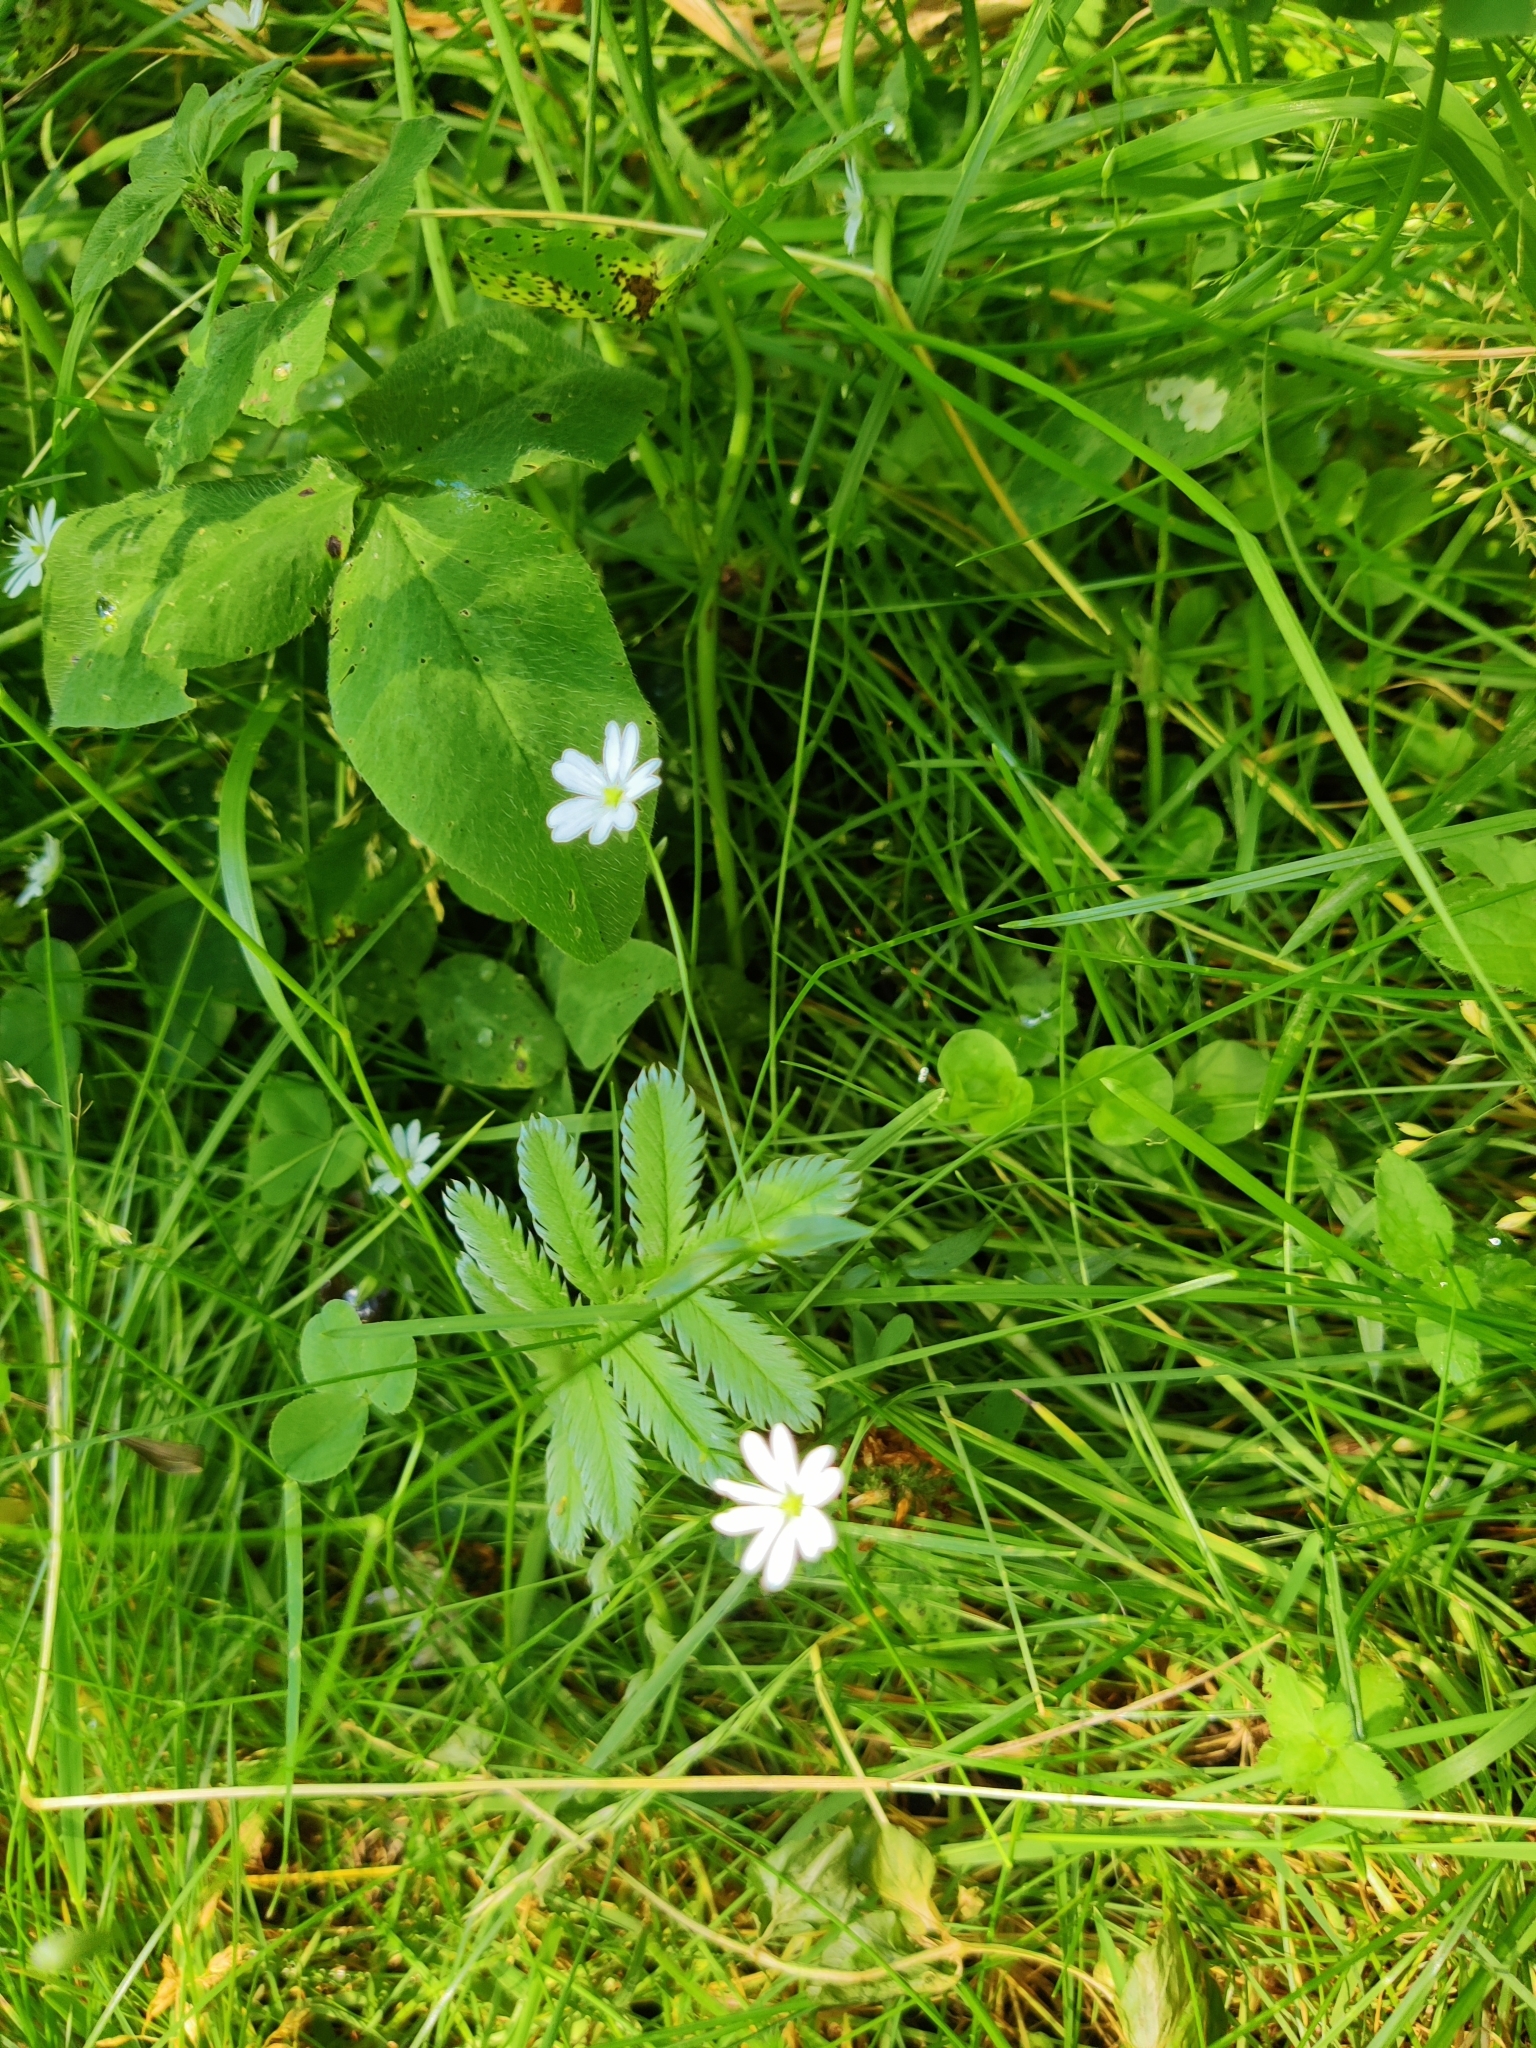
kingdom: Plantae
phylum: Tracheophyta
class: Magnoliopsida
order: Caryophyllales
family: Caryophyllaceae
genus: Stellaria
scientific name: Stellaria graminea
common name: Grass-like starwort
